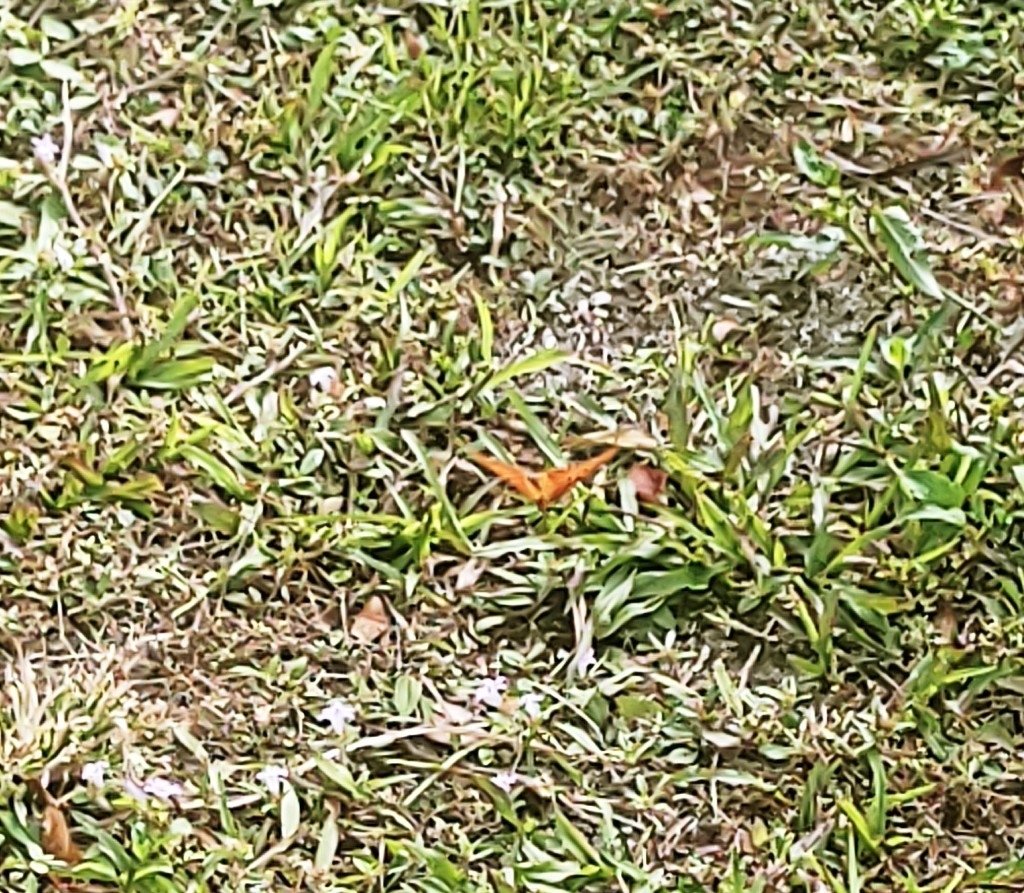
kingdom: Animalia
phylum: Arthropoda
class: Insecta
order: Lepidoptera
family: Nymphalidae
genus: Dione
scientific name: Dione vanillae
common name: Gulf fritillary
